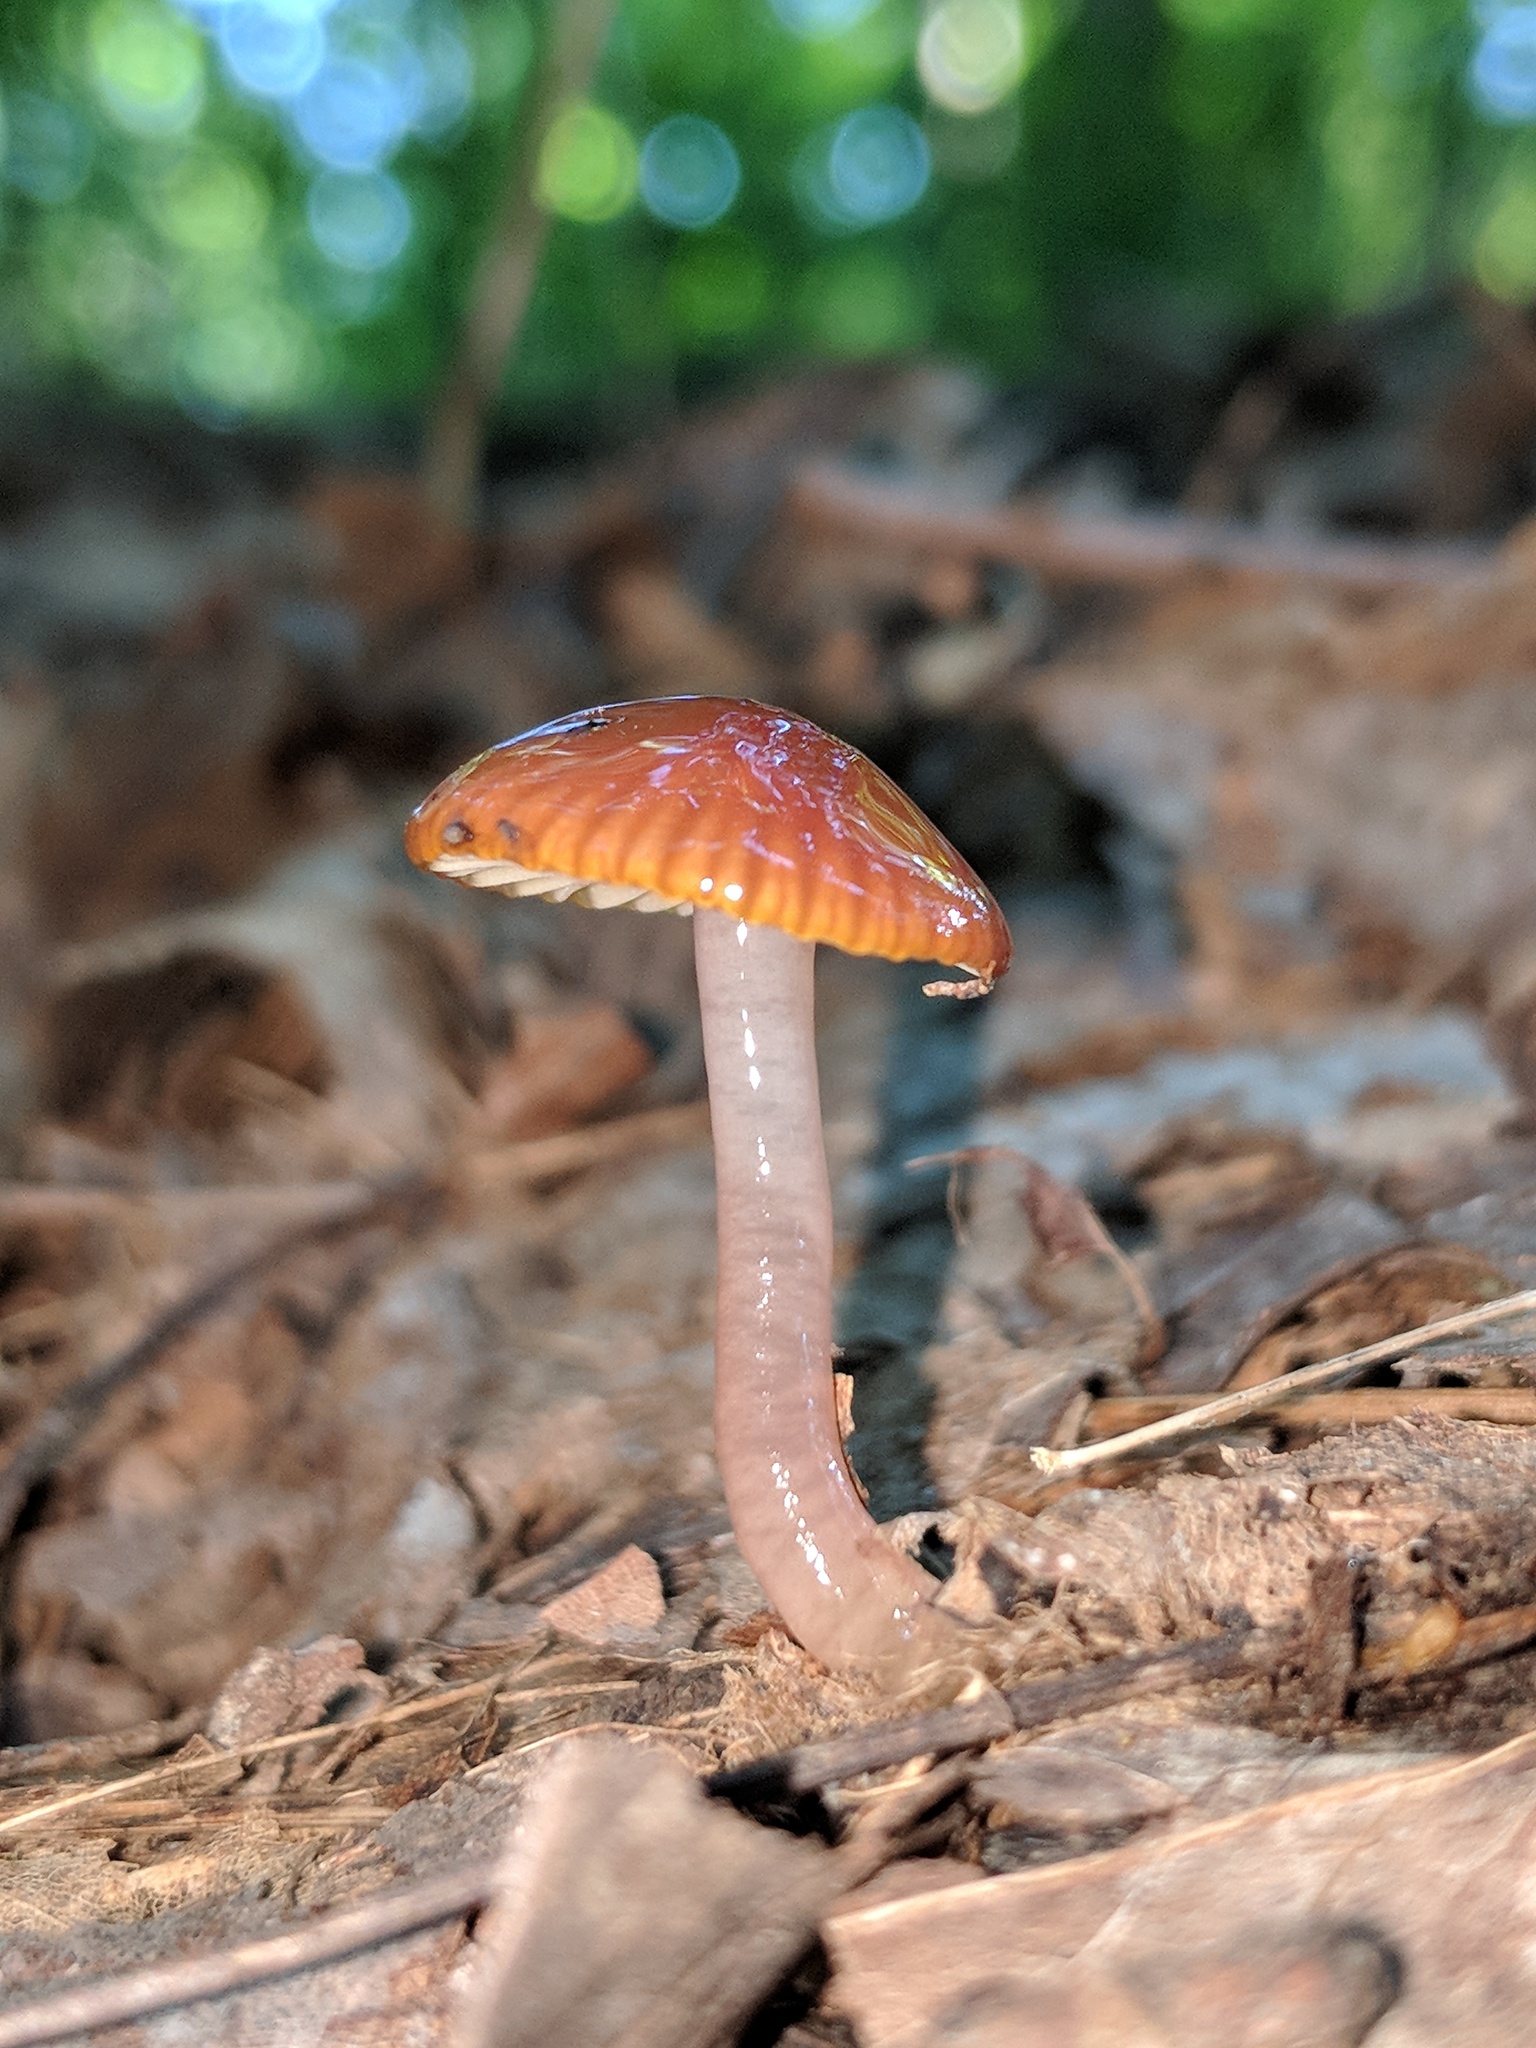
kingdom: Fungi
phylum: Basidiomycota
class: Agaricomycetes
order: Agaricales
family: Hygrophoraceae
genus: Gliophorus
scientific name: Gliophorus psittacinus
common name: Parrot wax-cap
